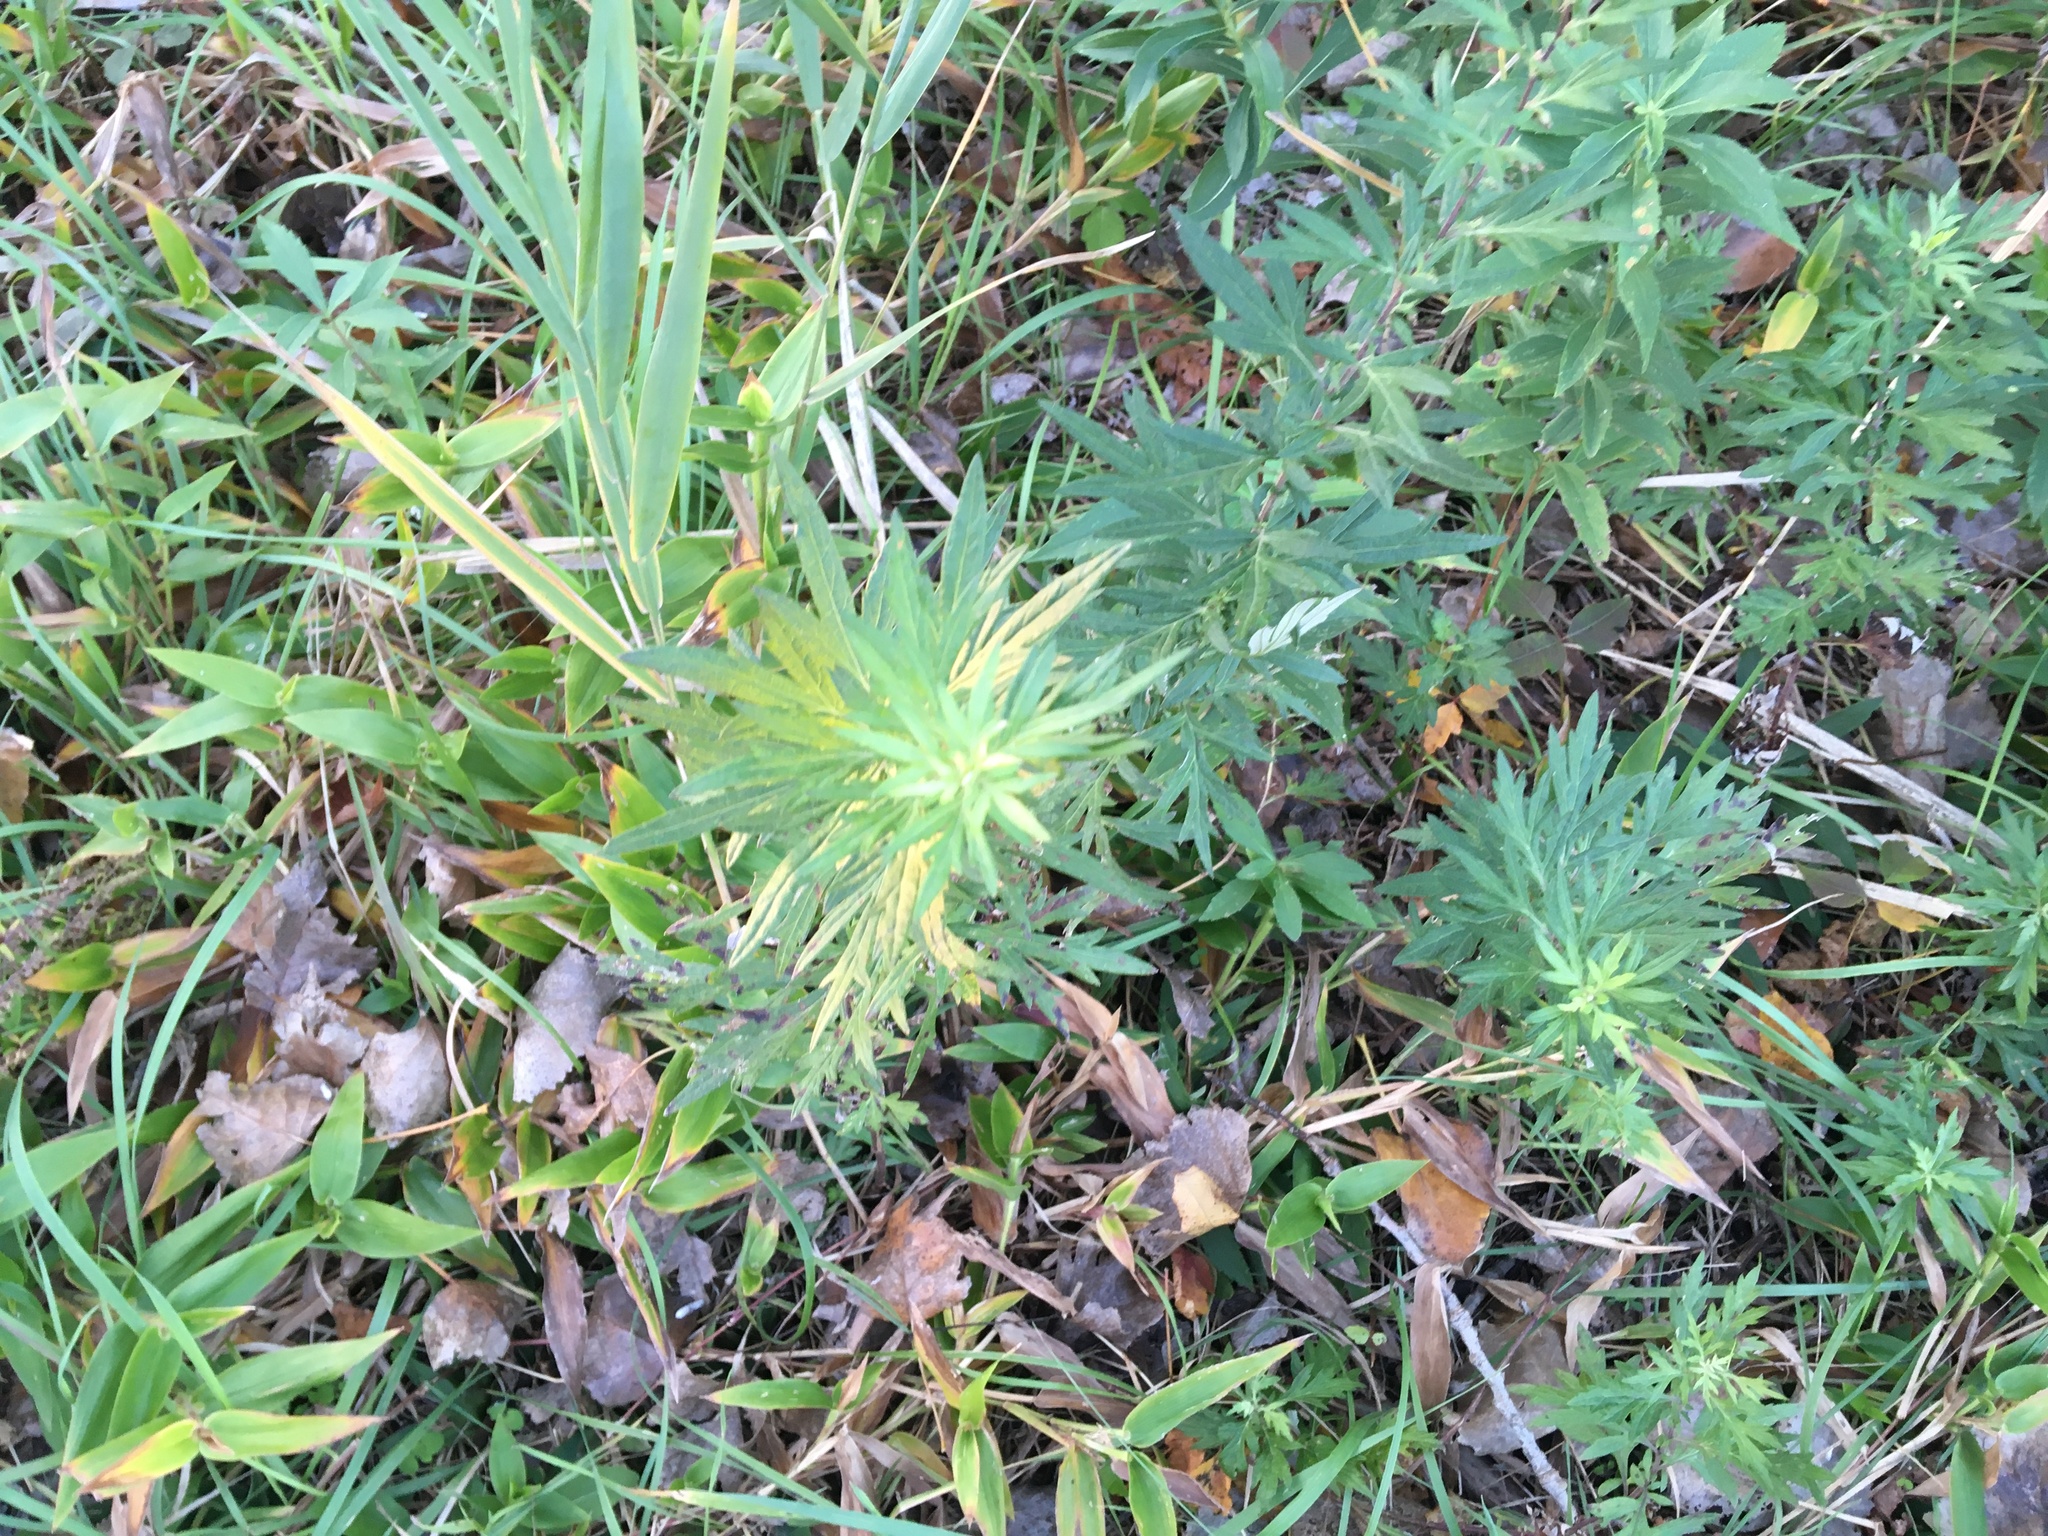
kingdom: Plantae
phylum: Tracheophyta
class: Magnoliopsida
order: Asterales
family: Asteraceae
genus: Artemisia
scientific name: Artemisia vulgaris
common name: Mugwort
